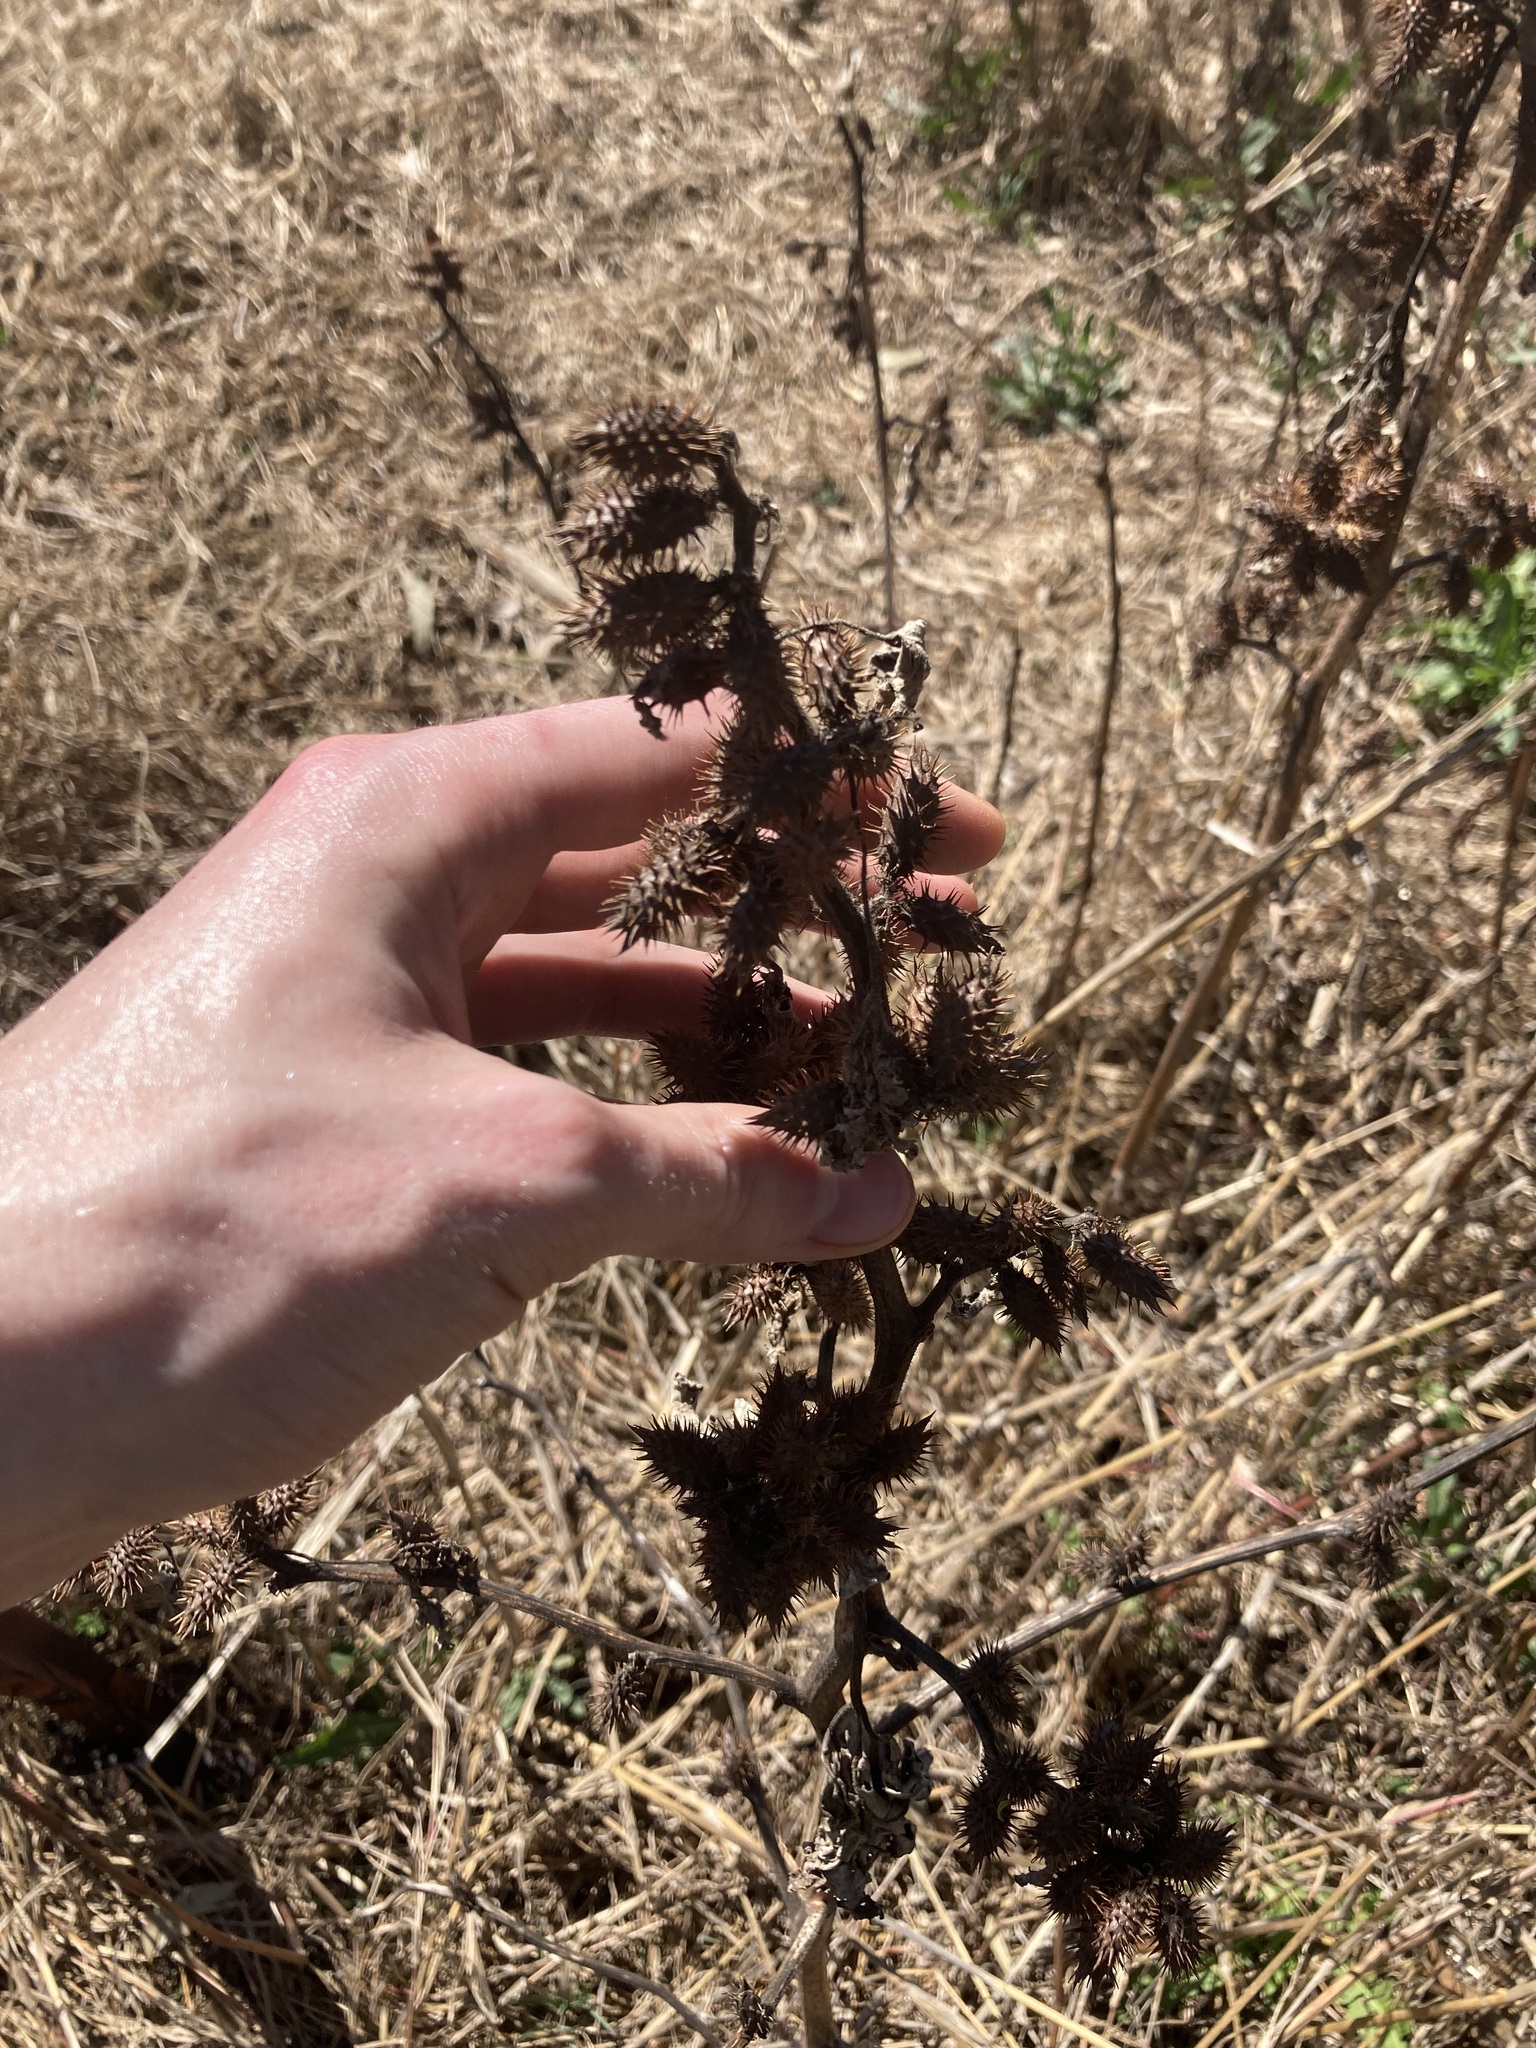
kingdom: Plantae
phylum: Tracheophyta
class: Magnoliopsida
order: Asterales
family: Asteraceae
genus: Xanthium
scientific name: Xanthium strumarium
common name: Rough cocklebur
